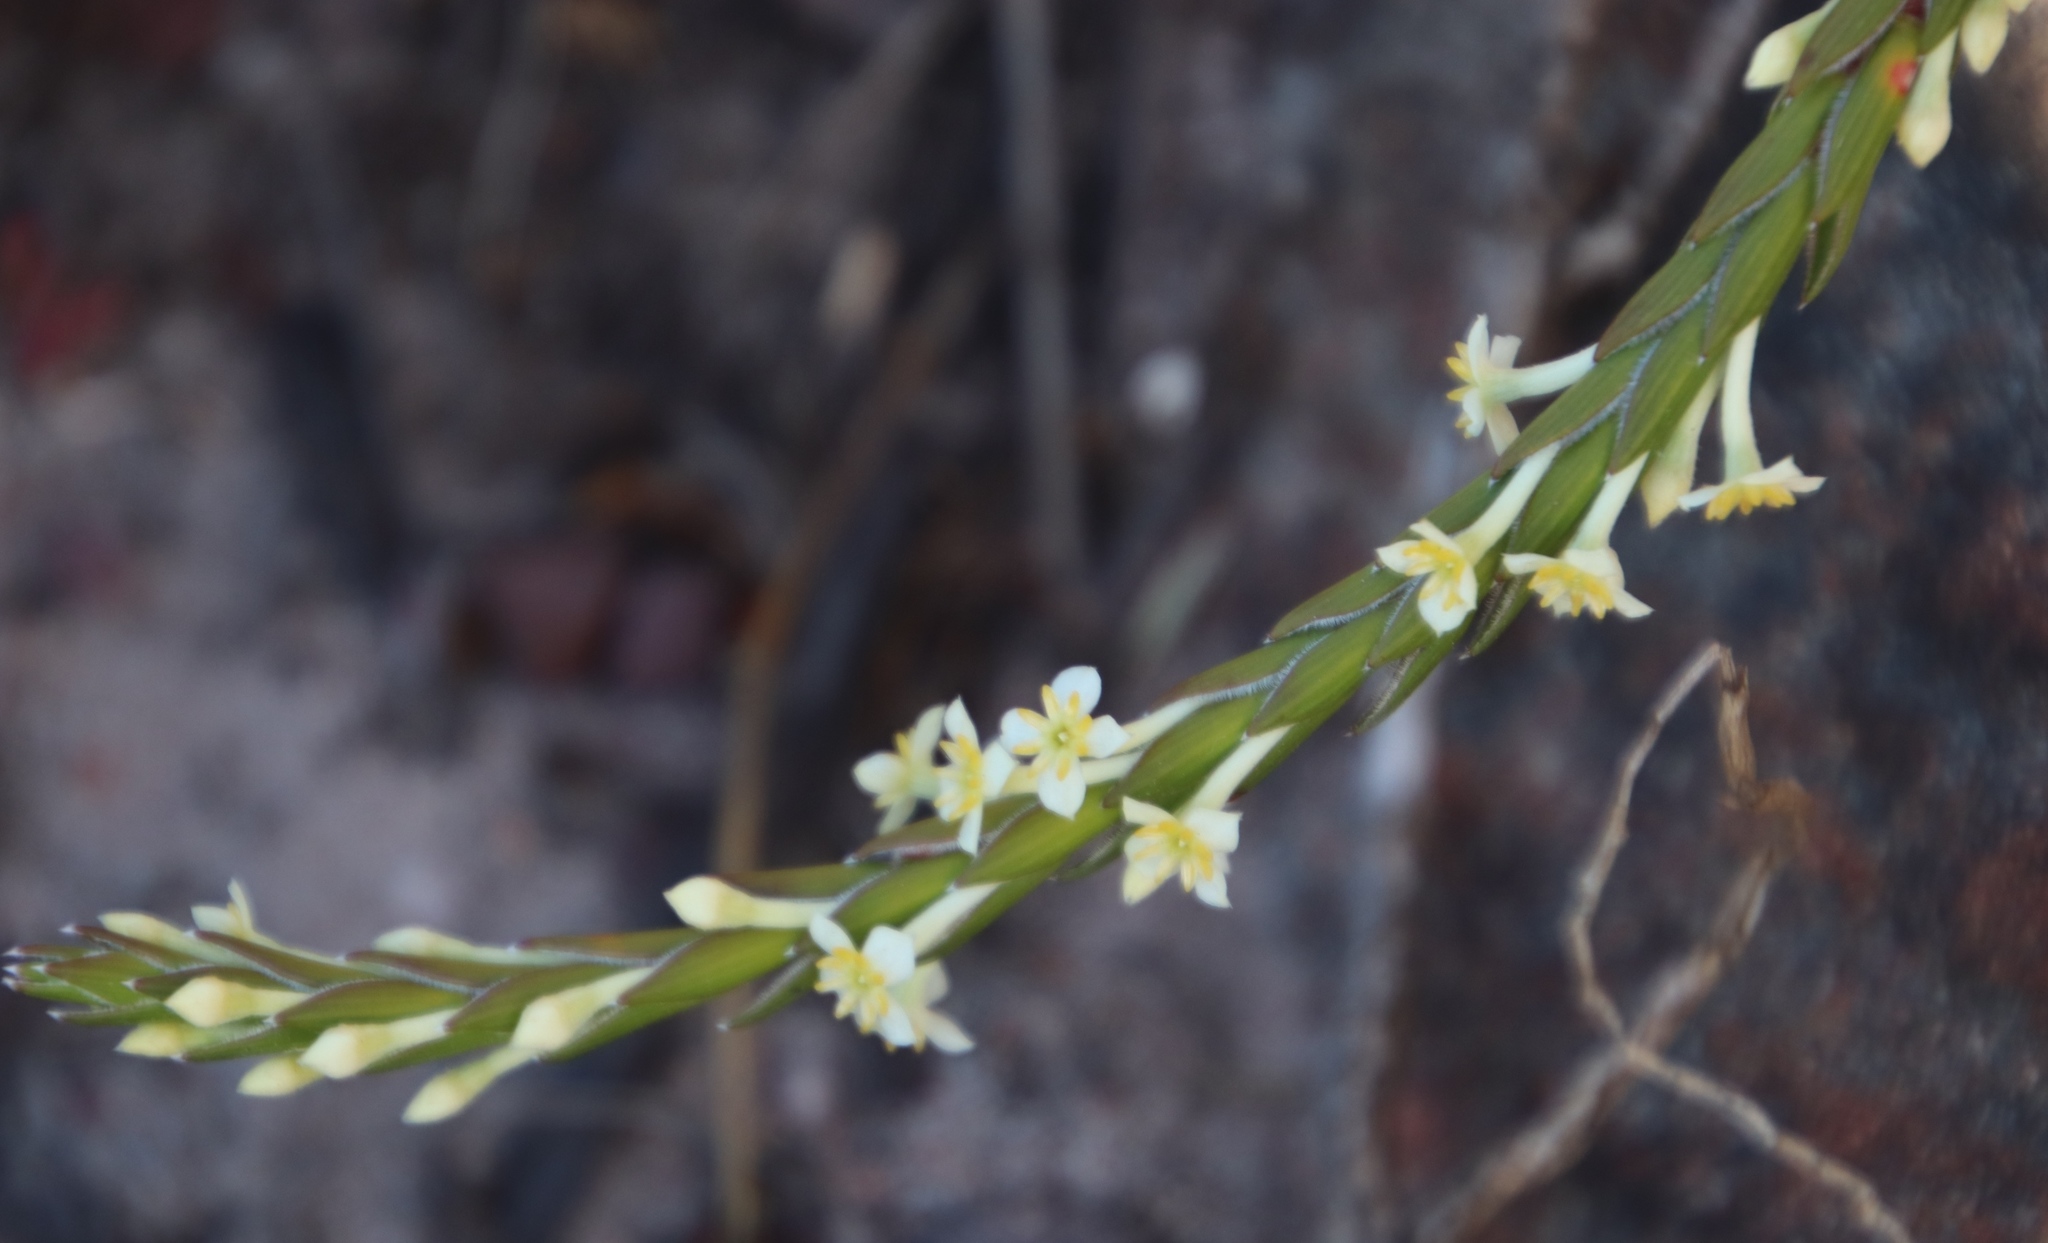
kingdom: Plantae
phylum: Tracheophyta
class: Magnoliopsida
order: Malvales
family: Thymelaeaceae
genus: Struthiola
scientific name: Struthiola ciliata
